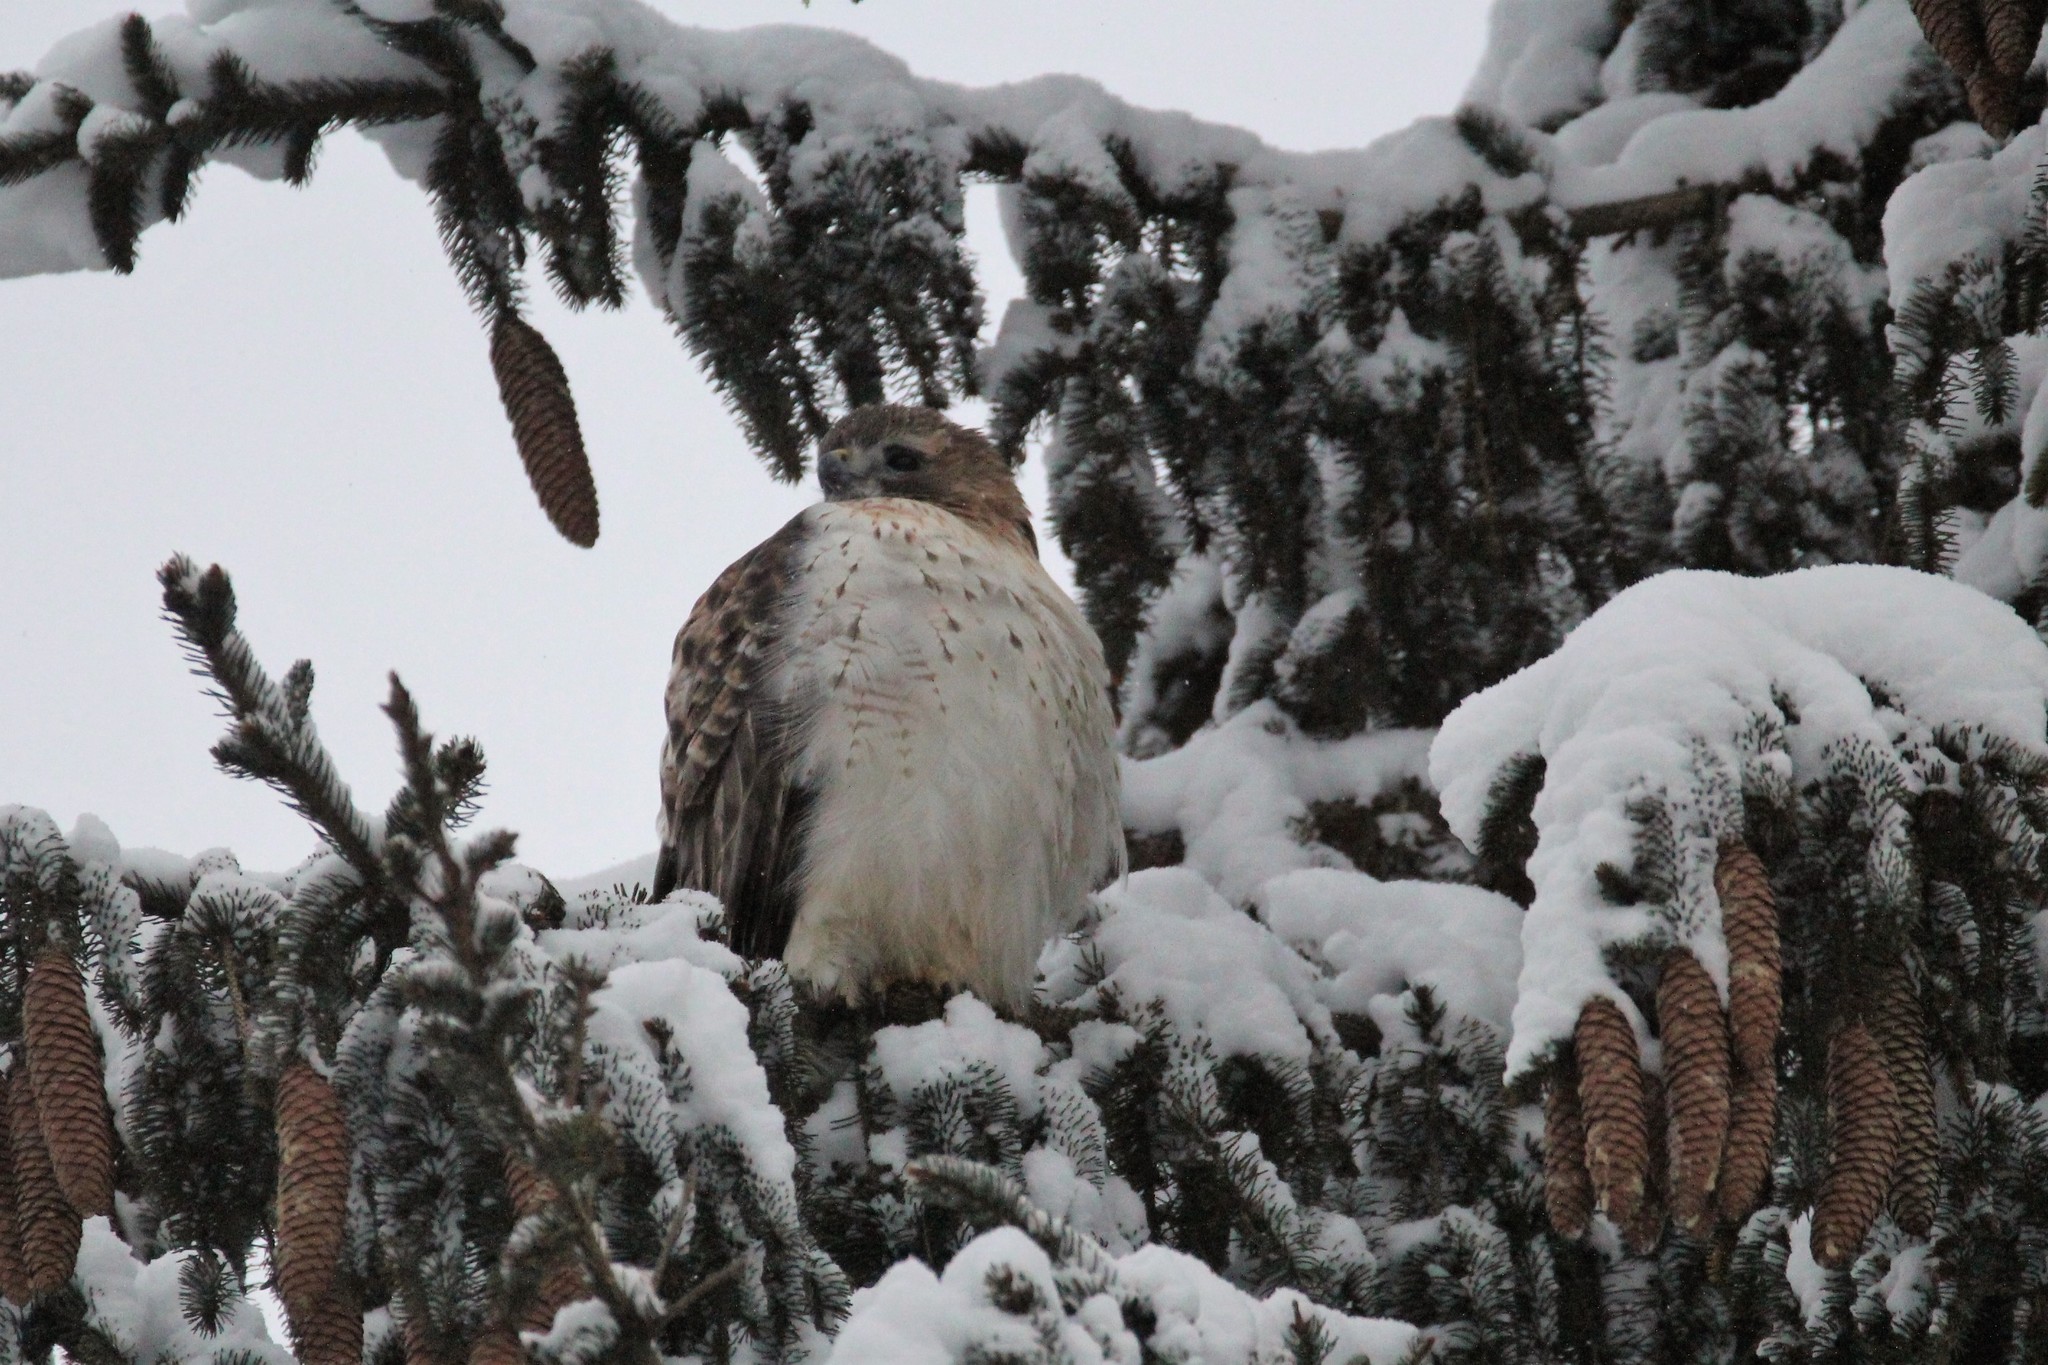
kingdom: Animalia
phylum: Chordata
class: Aves
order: Accipitriformes
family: Accipitridae
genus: Buteo
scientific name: Buteo jamaicensis
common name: Red-tailed hawk
